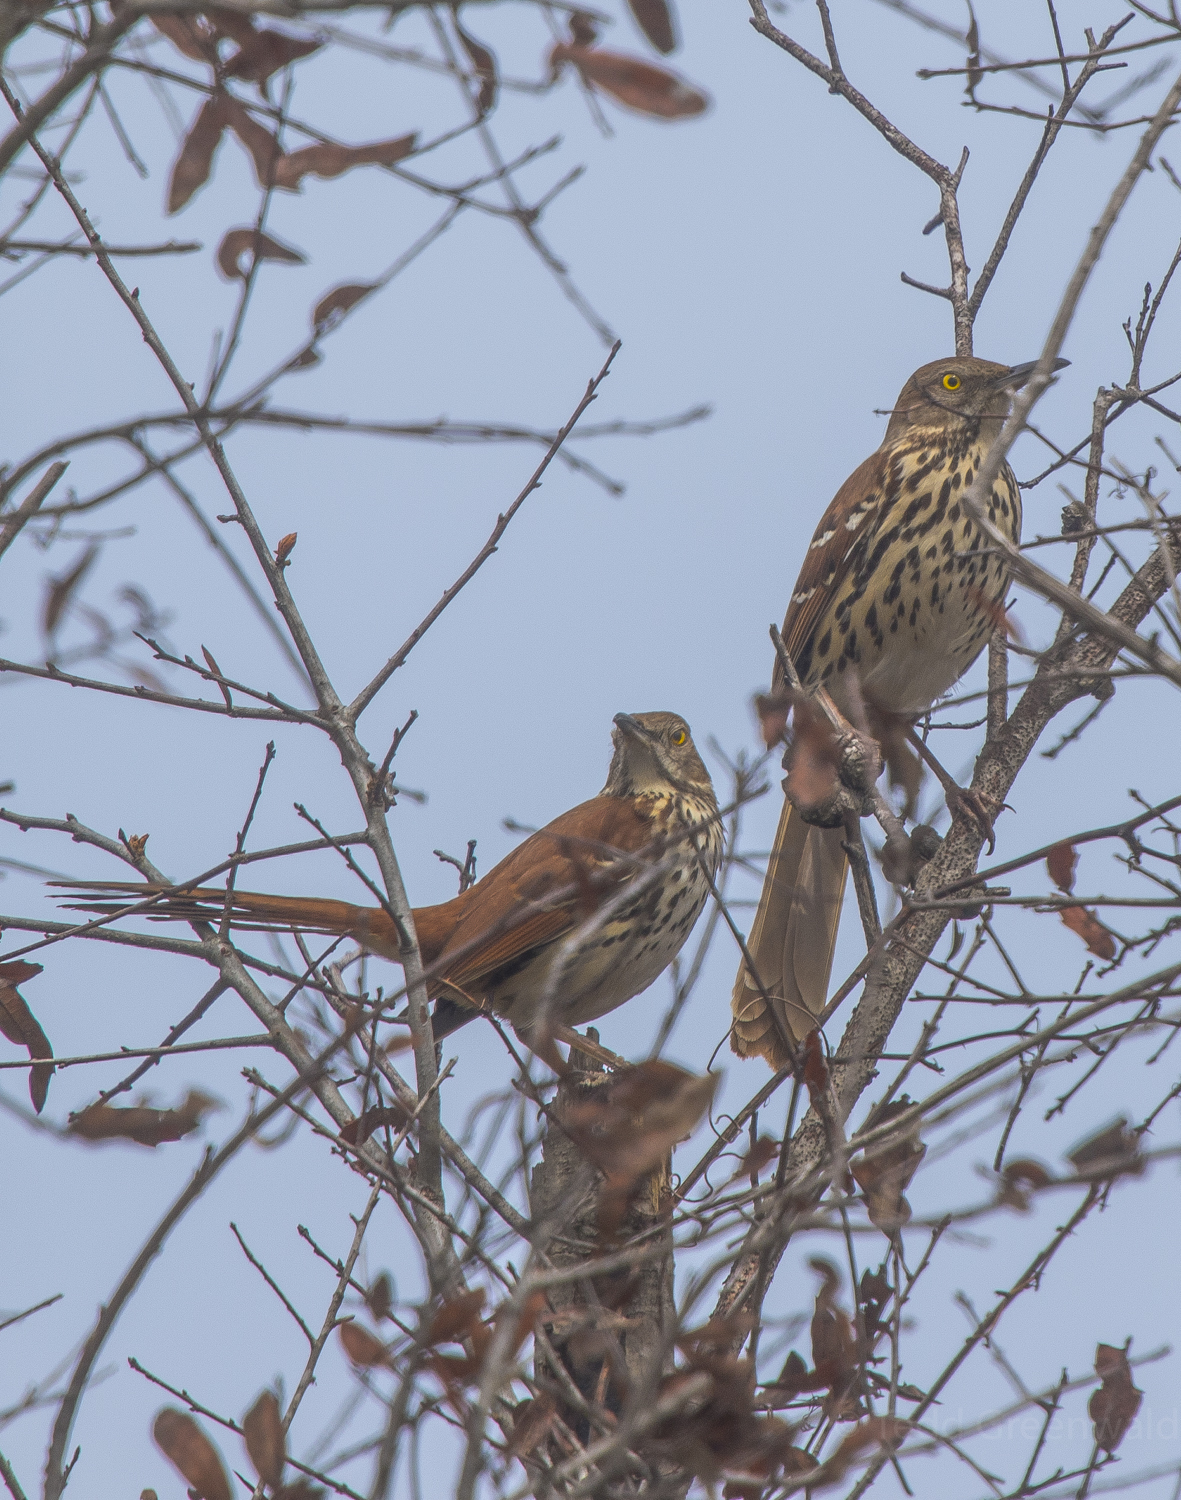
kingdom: Animalia
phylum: Chordata
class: Aves
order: Passeriformes
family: Mimidae
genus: Toxostoma
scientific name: Toxostoma rufum
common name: Brown thrasher
